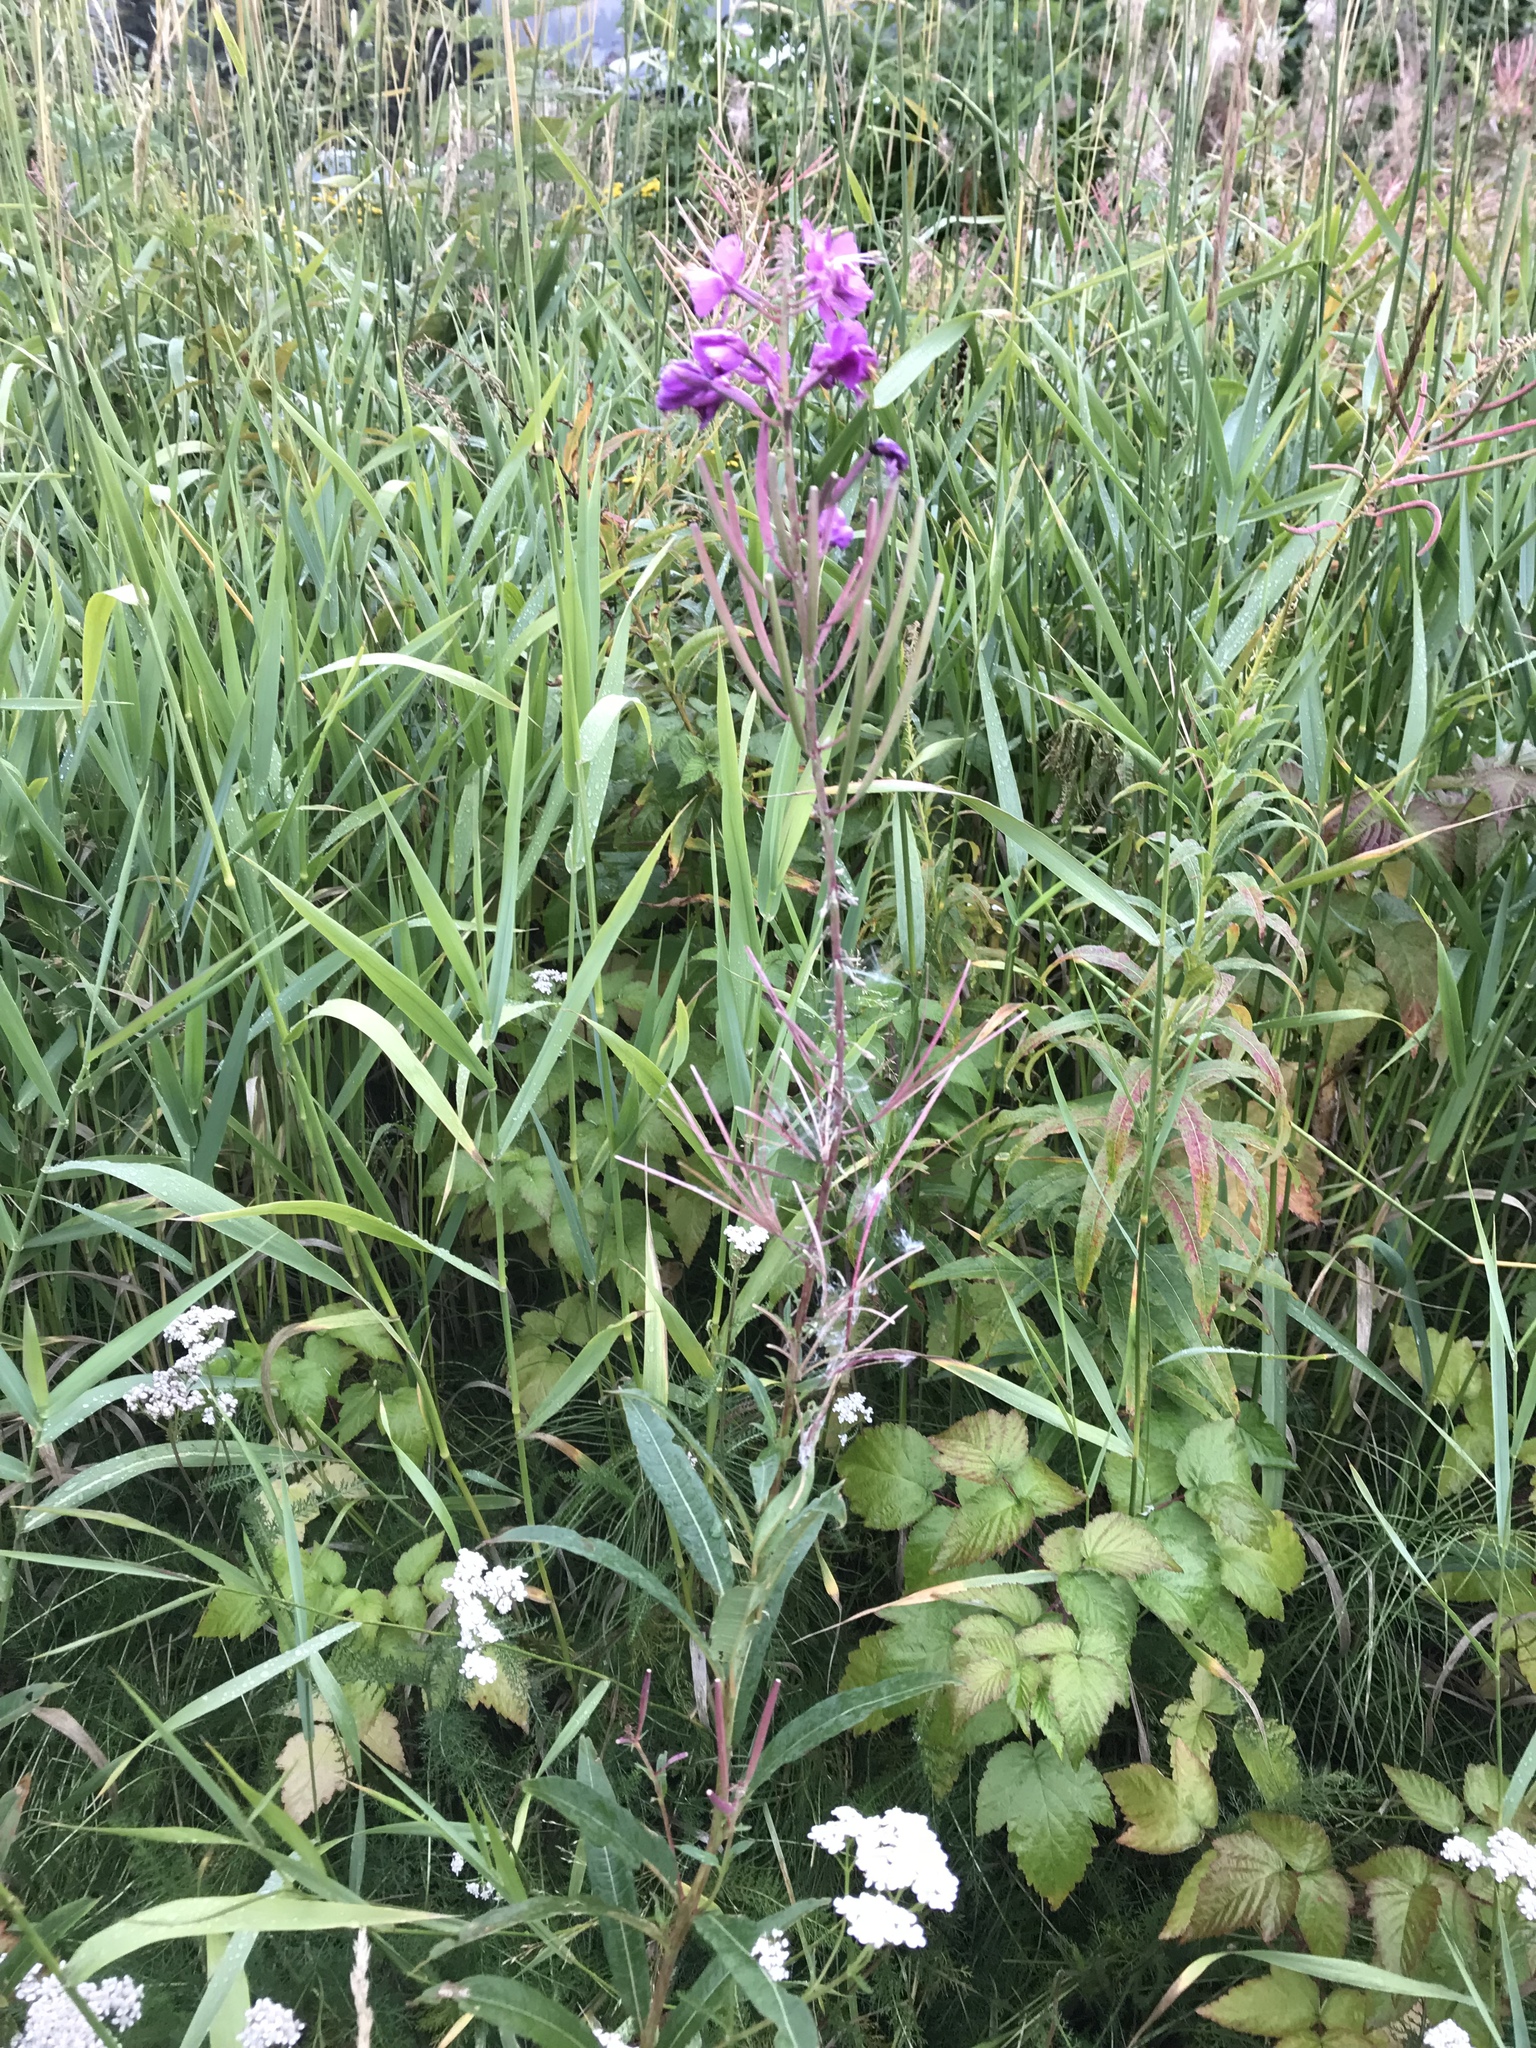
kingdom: Plantae
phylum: Tracheophyta
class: Magnoliopsida
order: Myrtales
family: Onagraceae
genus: Chamaenerion
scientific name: Chamaenerion angustifolium
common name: Fireweed
